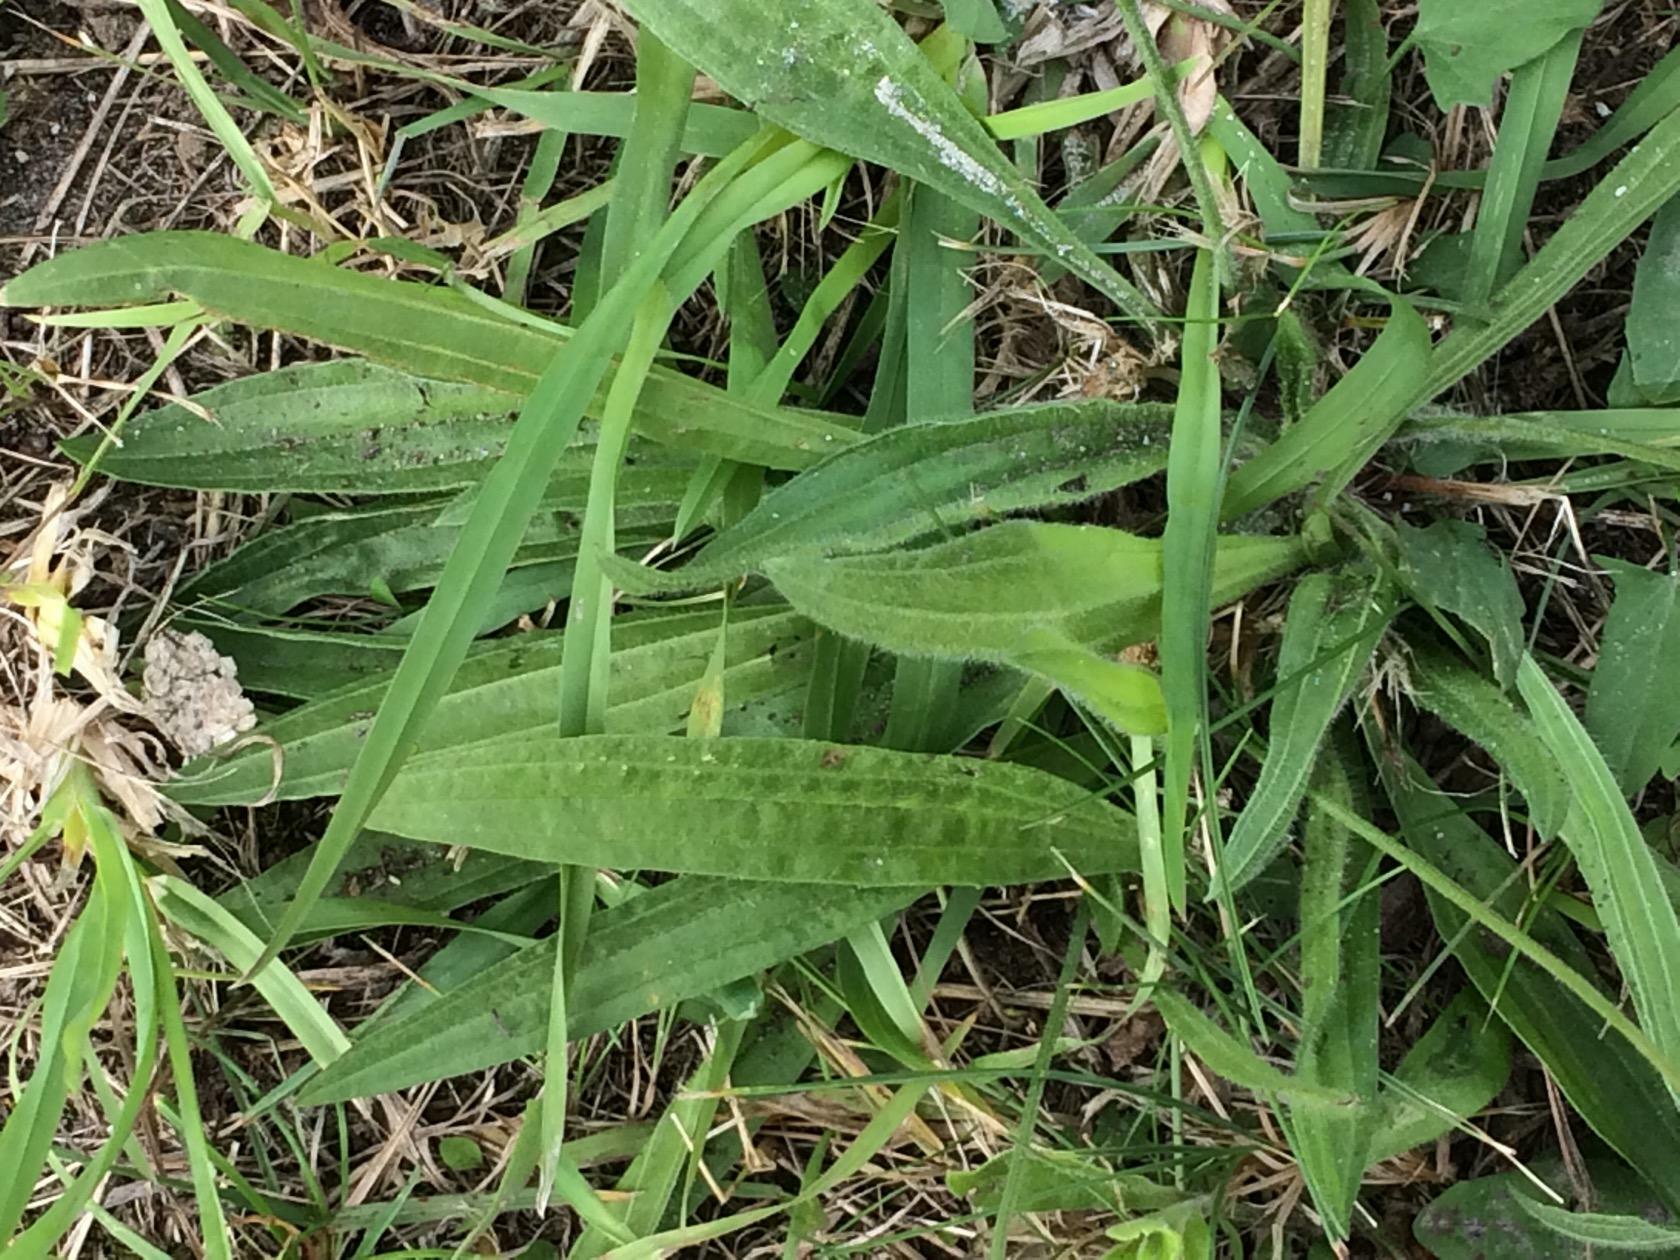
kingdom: Plantae
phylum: Tracheophyta
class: Magnoliopsida
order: Lamiales
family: Plantaginaceae
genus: Plantago
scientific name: Plantago lanceolata
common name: Ribwort plantain
